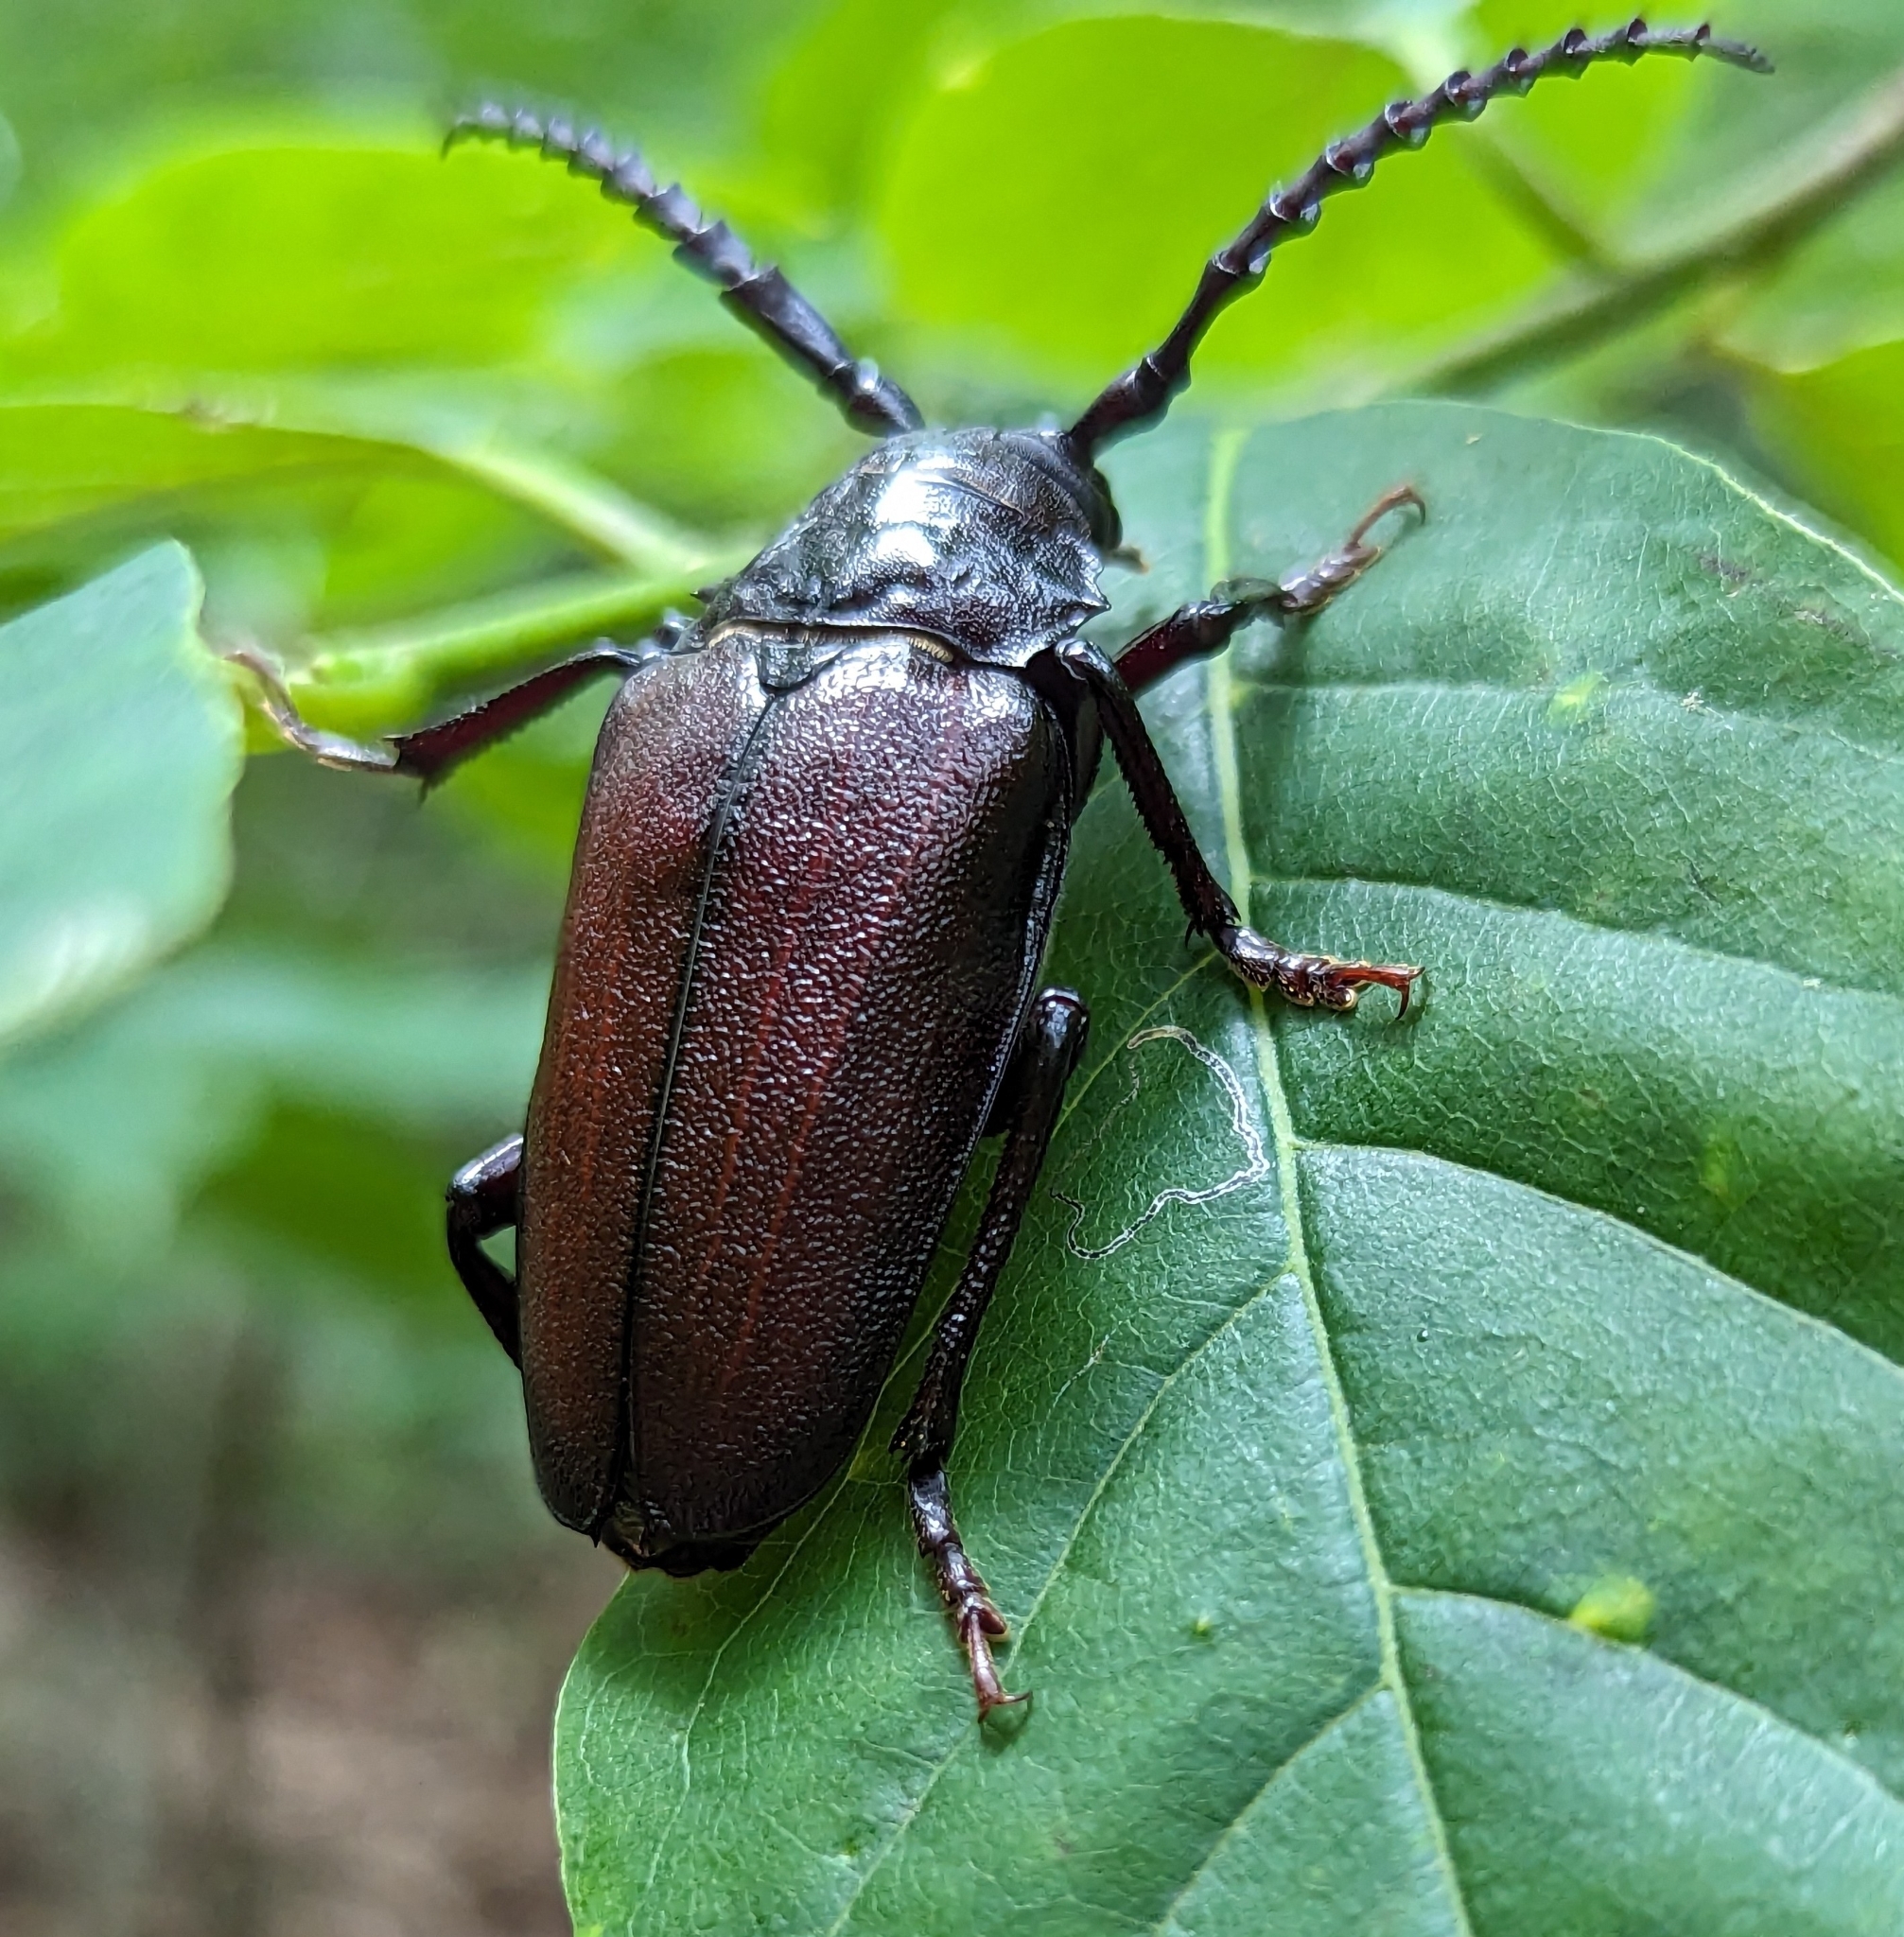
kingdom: Animalia
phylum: Arthropoda
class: Insecta
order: Coleoptera
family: Cerambycidae
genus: Prionus
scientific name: Prionus laticollis
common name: Broad necked prionus
